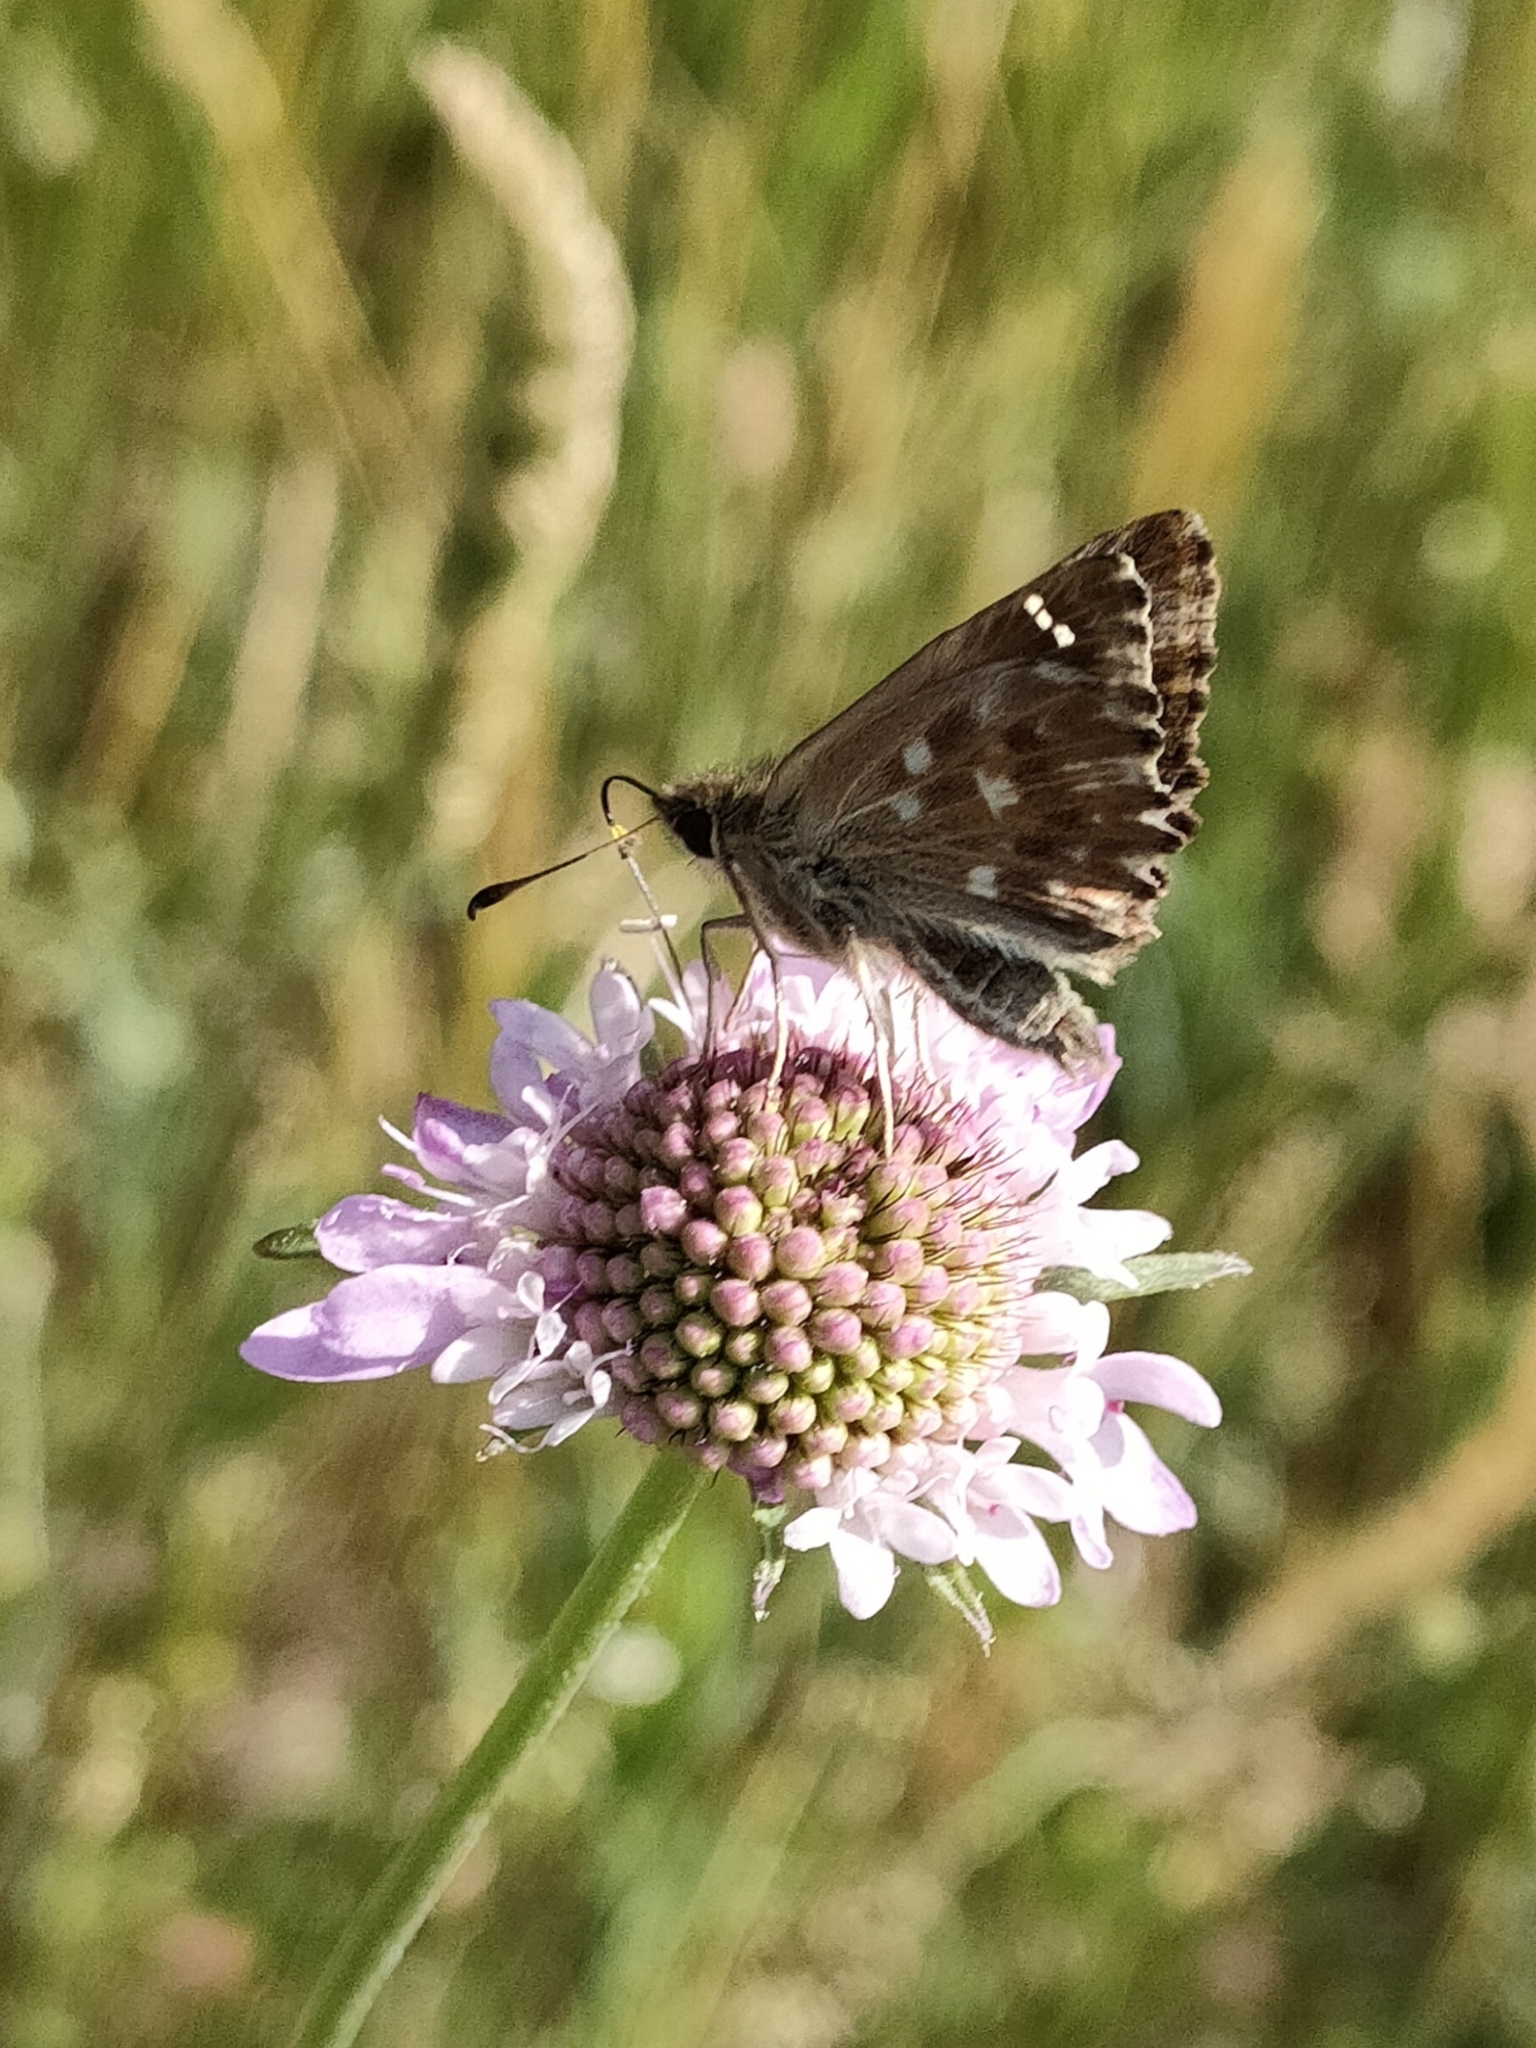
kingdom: Animalia
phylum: Arthropoda
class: Insecta
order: Lepidoptera
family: Hesperiidae
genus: Carcharodus
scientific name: Carcharodus alceae
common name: Mallow skipper
